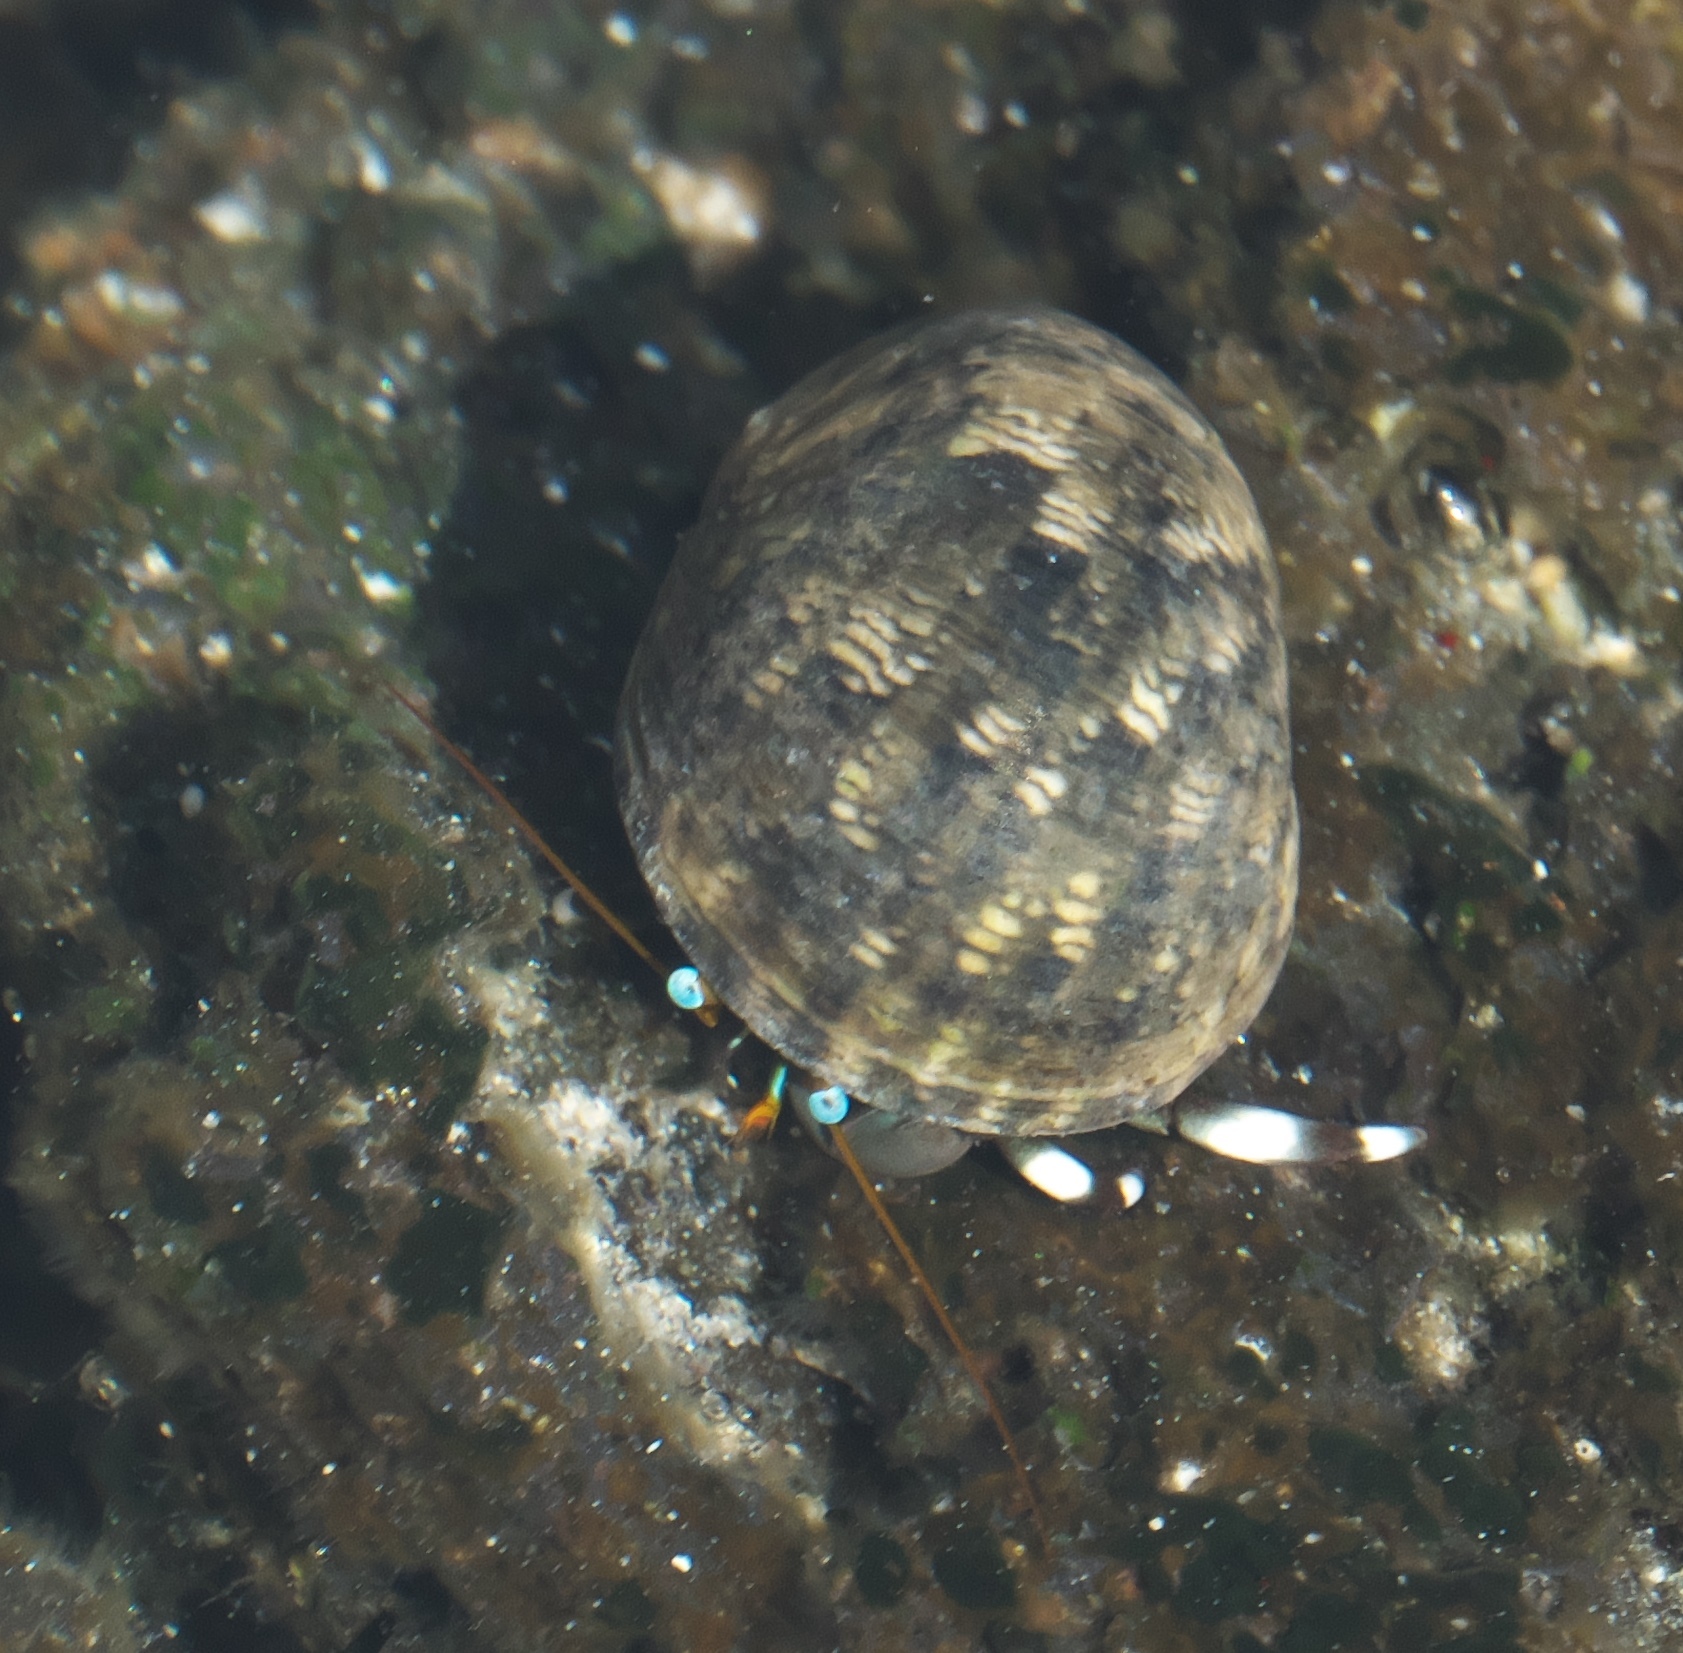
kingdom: Animalia
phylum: Arthropoda
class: Malacostraca
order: Decapoda
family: Diogenidae
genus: Calcinus
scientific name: Calcinus seurati
